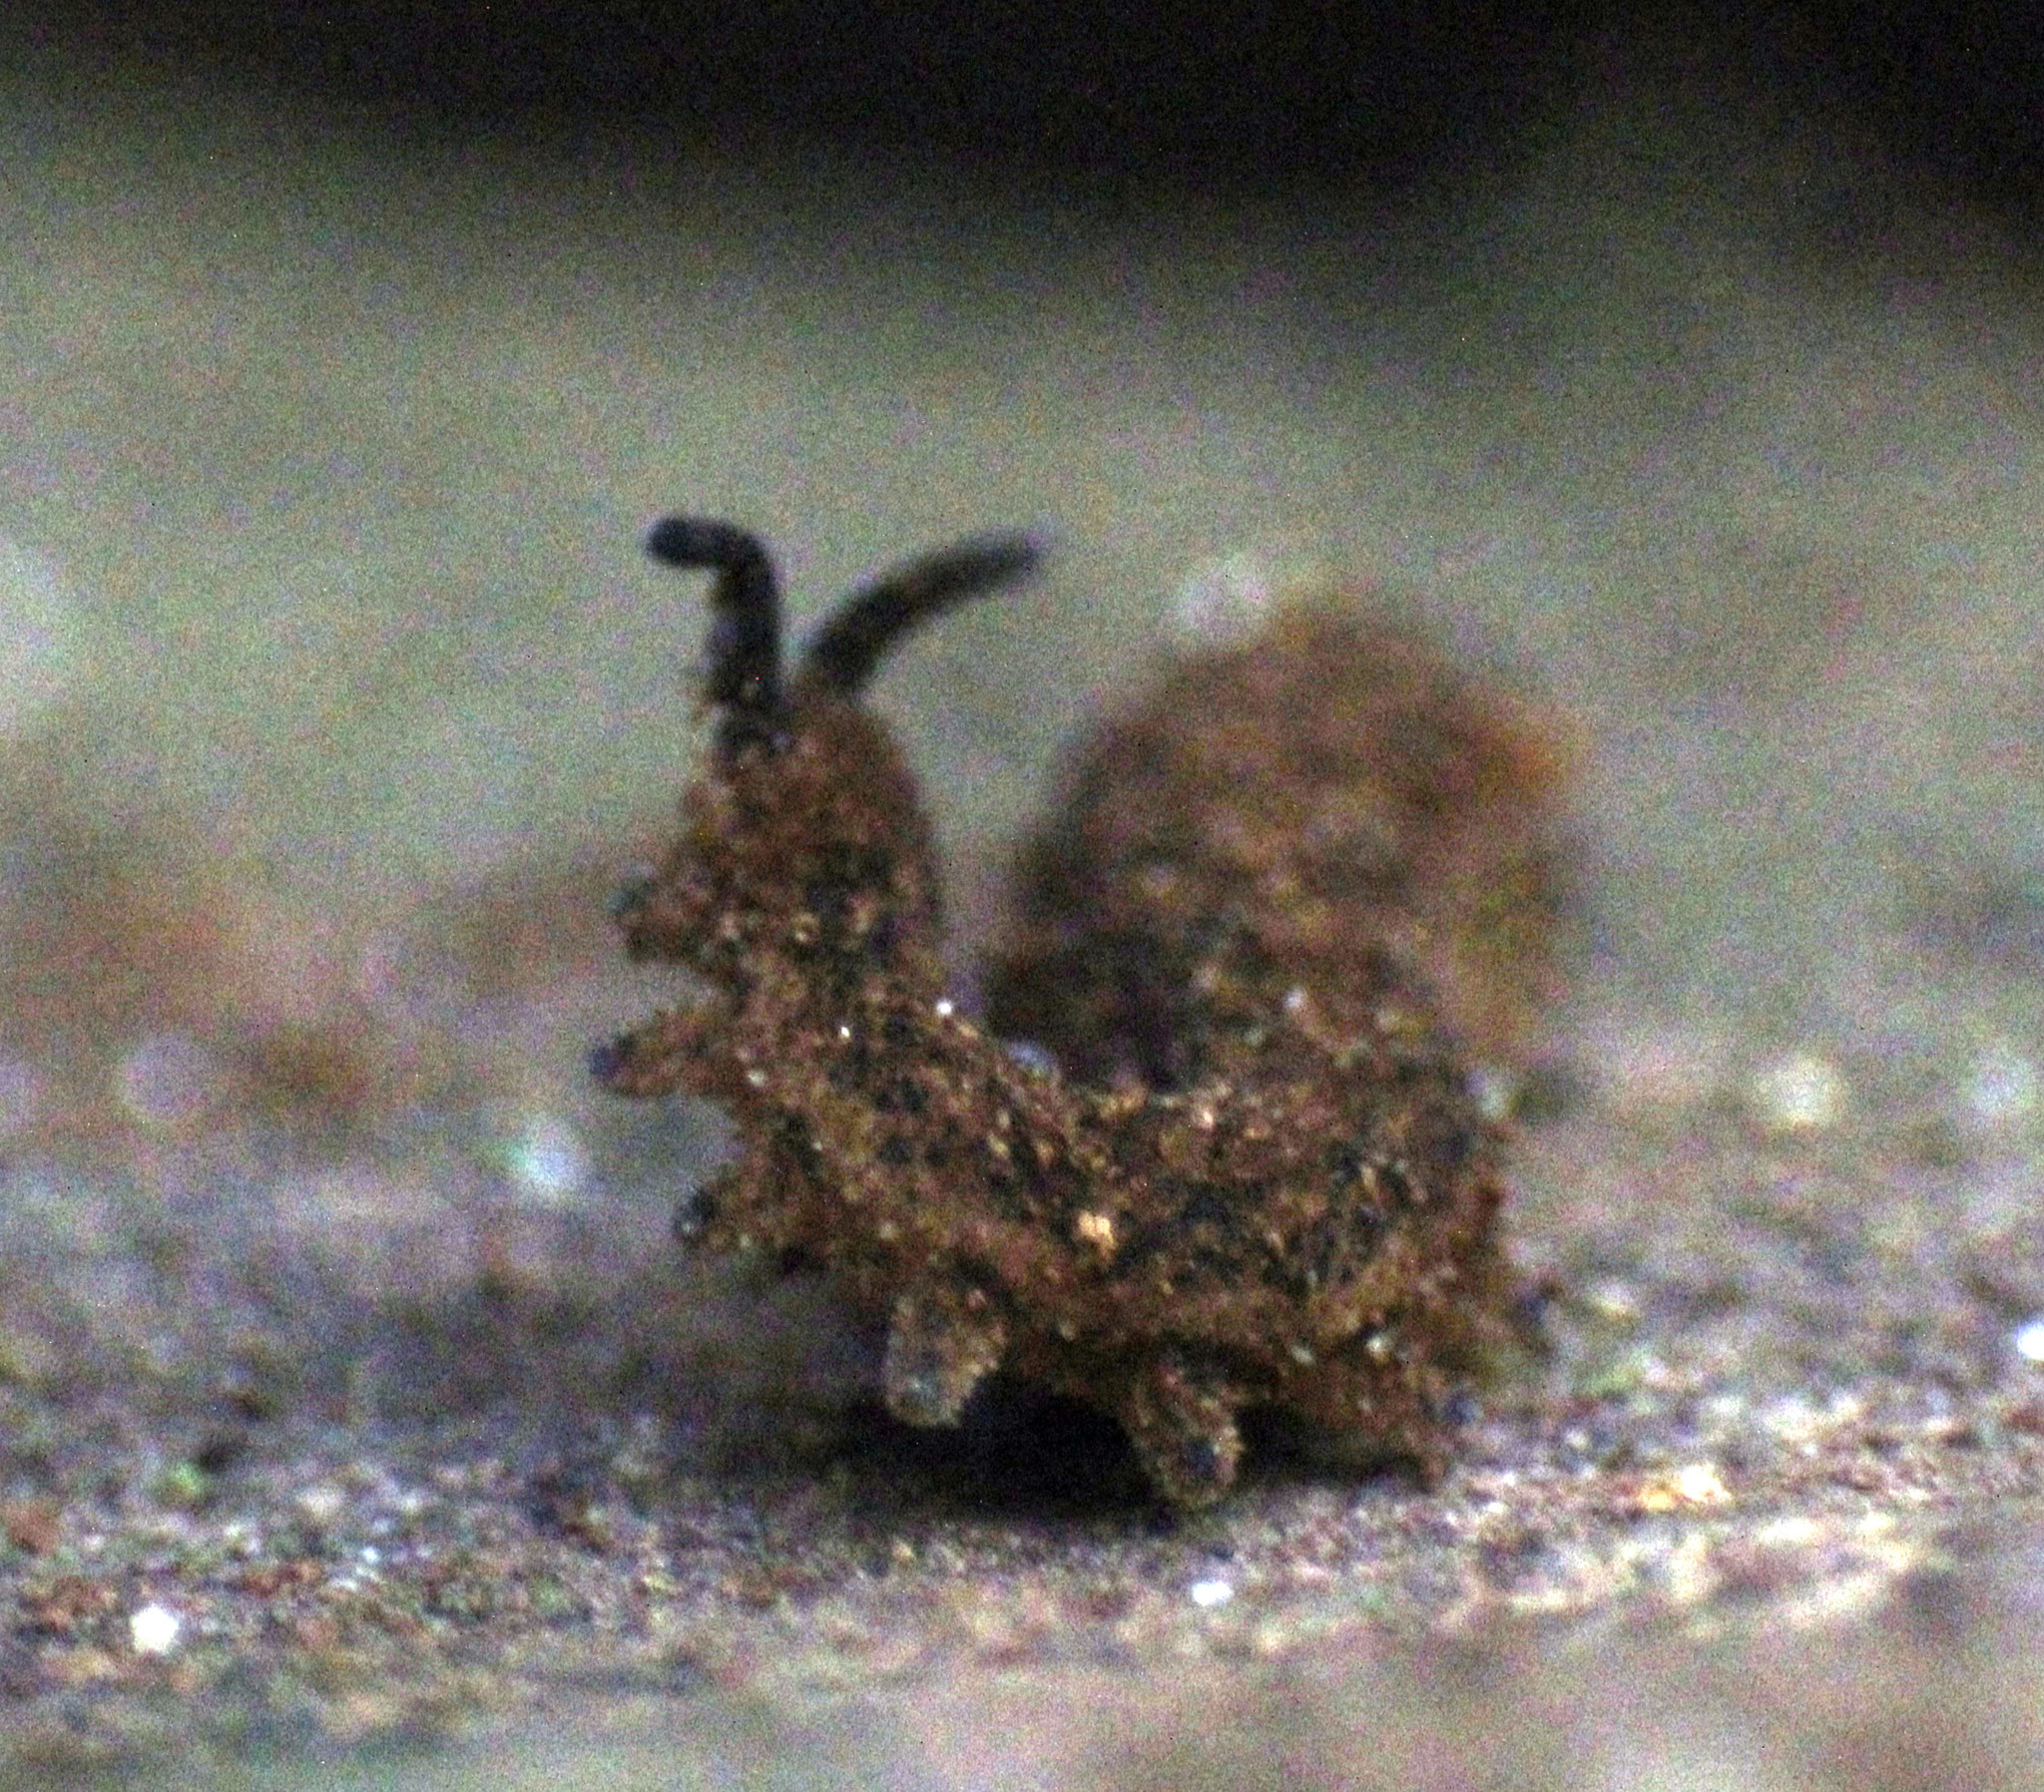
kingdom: Animalia
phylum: Onychophora
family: Peripatopsidae
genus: Kumbadjena
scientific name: Kumbadjena extrema
